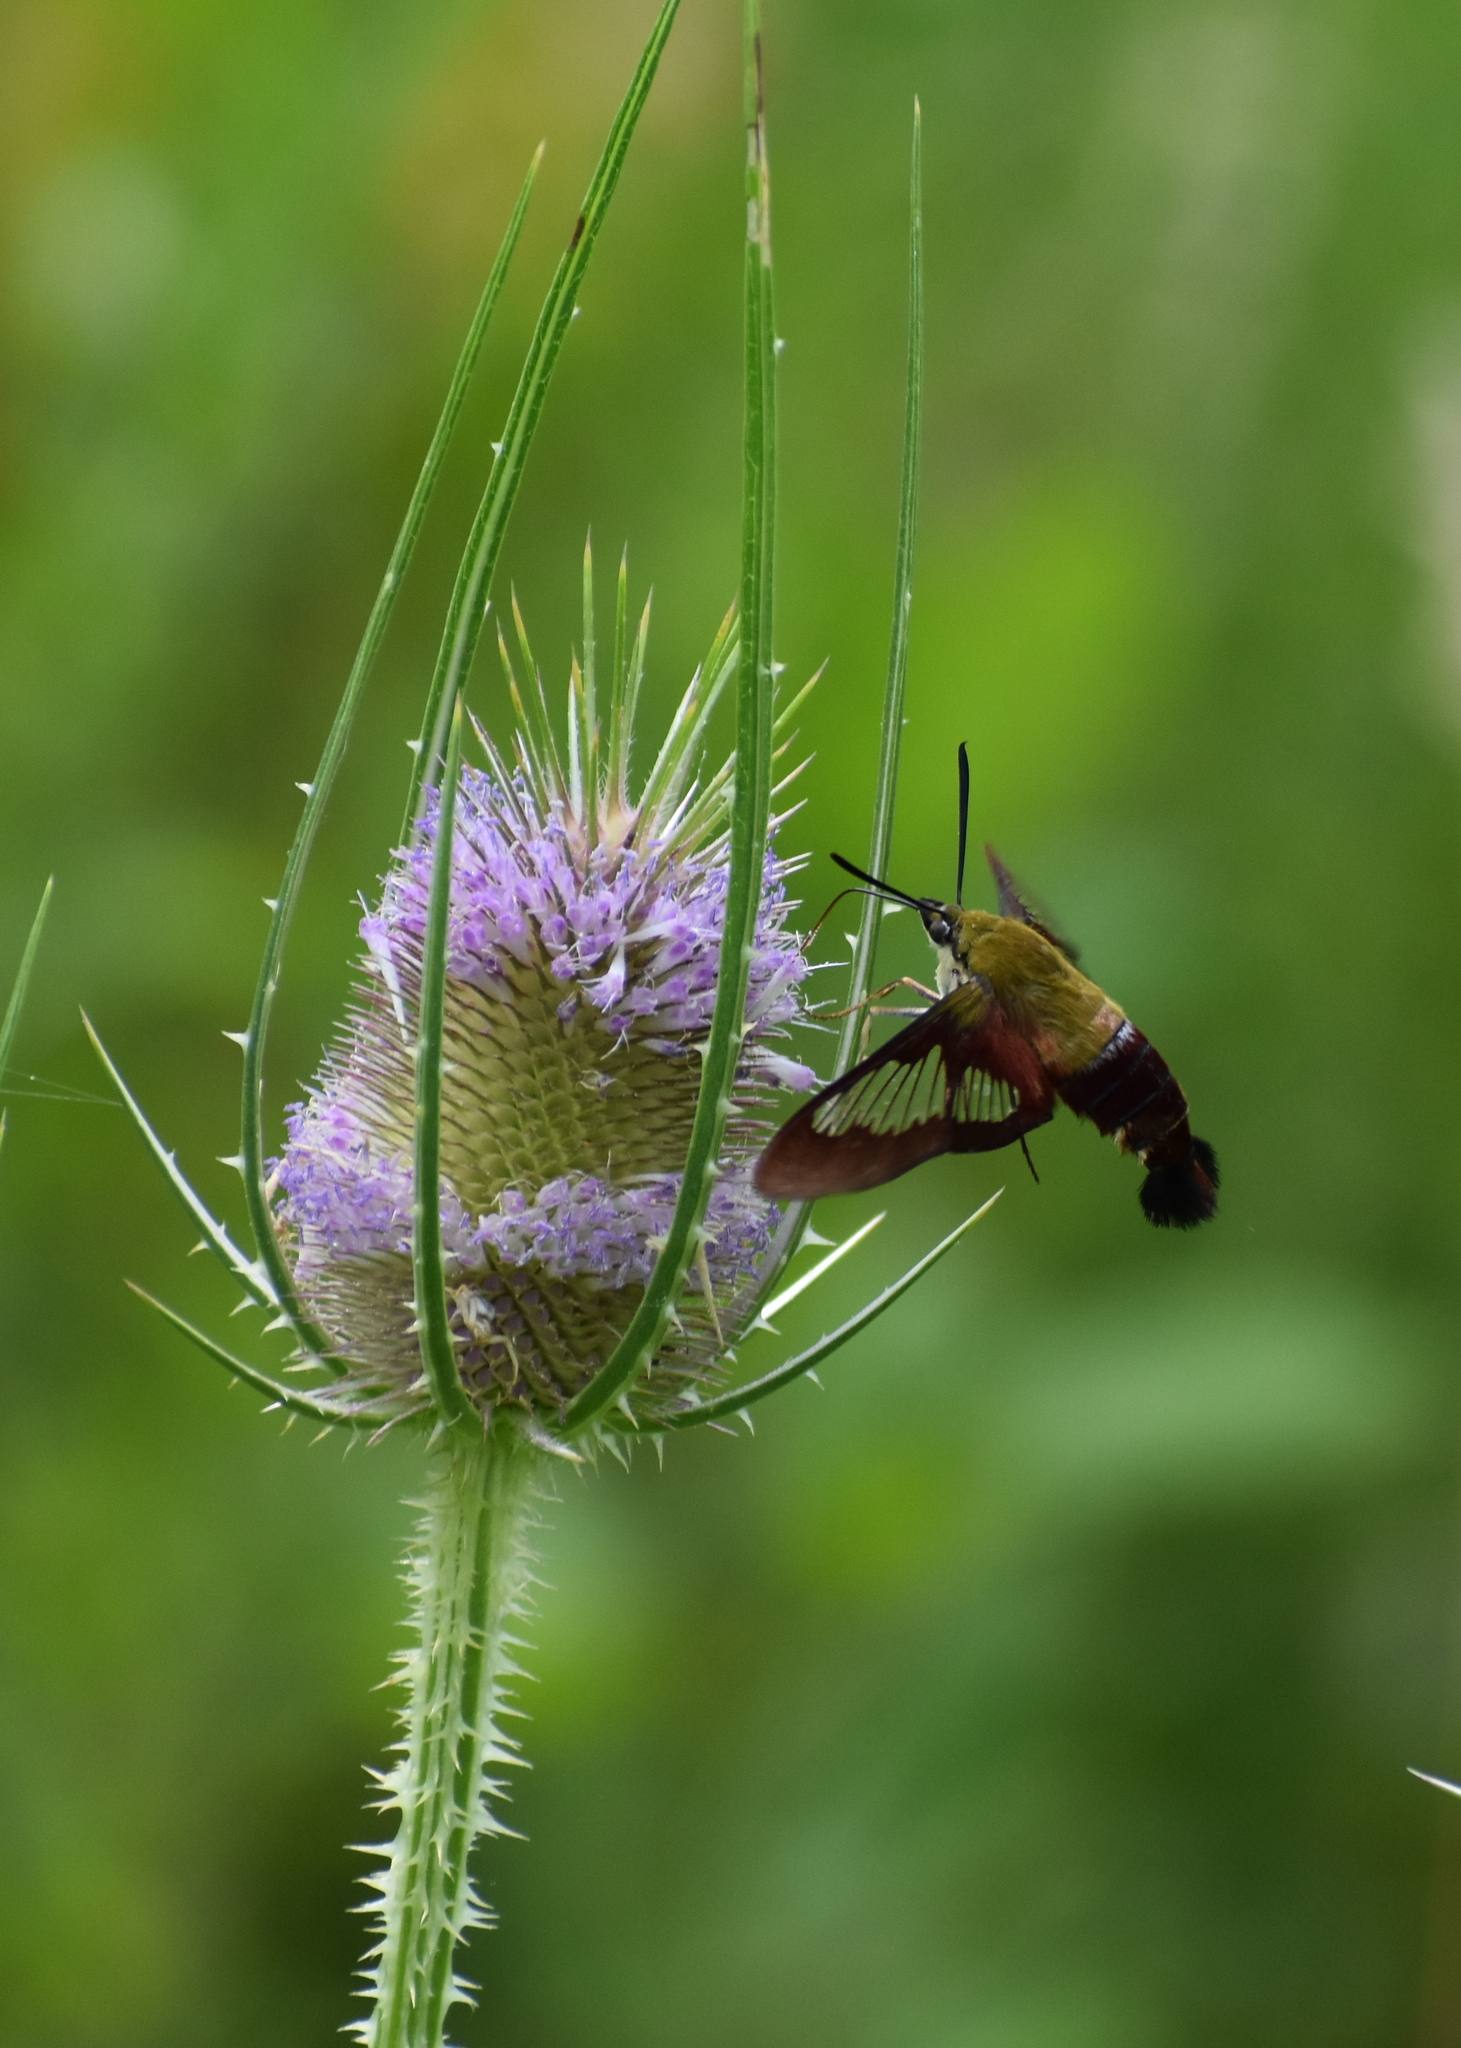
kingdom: Animalia
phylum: Arthropoda
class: Insecta
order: Lepidoptera
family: Sphingidae
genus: Hemaris
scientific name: Hemaris thysbe
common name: Common clear-wing
